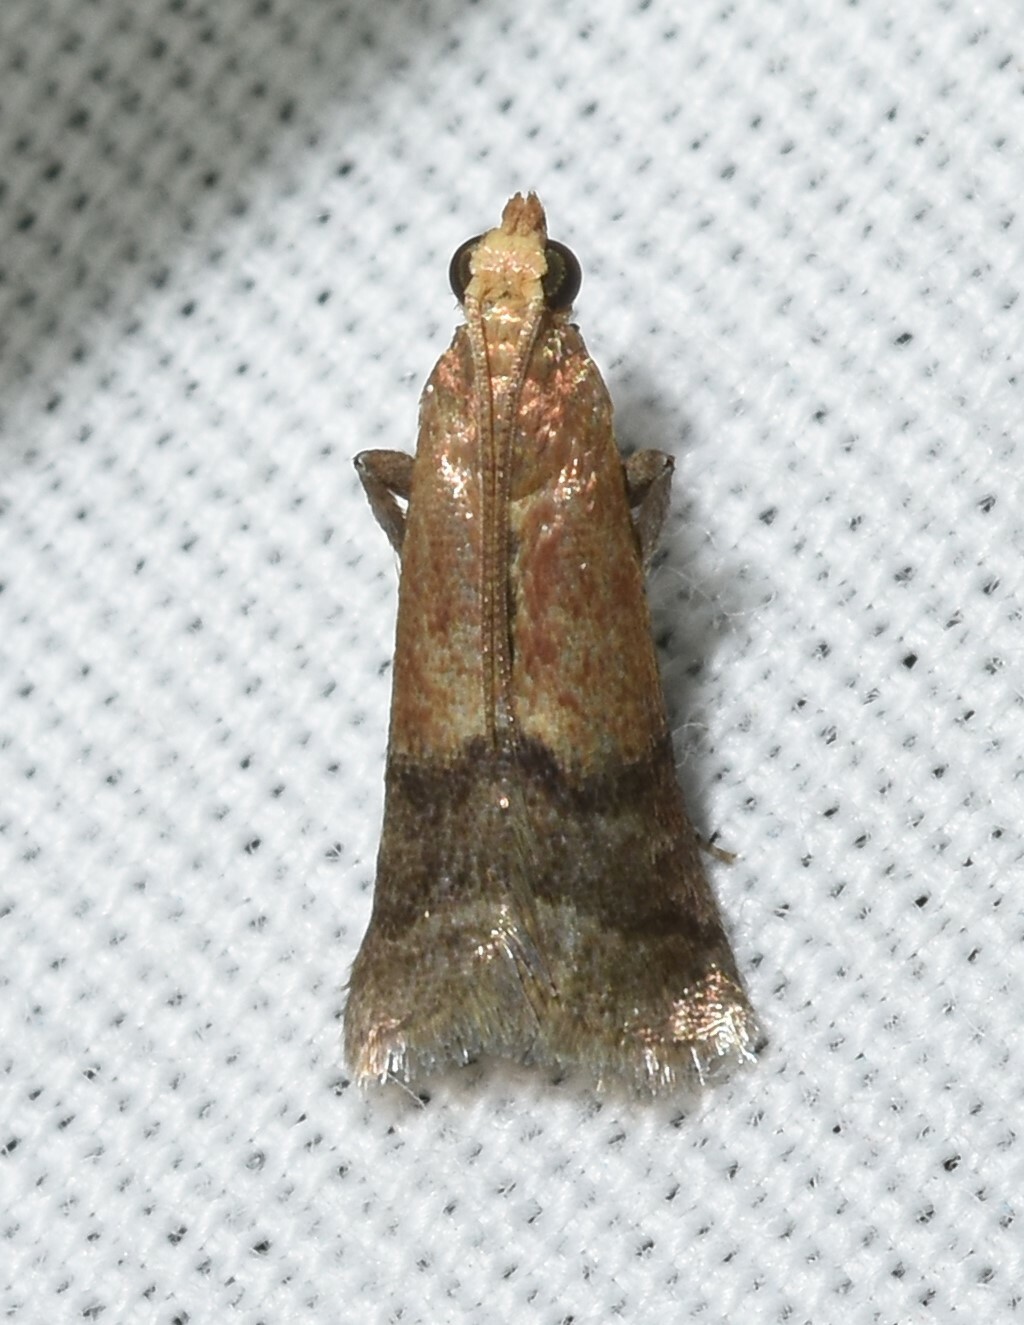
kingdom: Animalia
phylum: Arthropoda
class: Insecta
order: Lepidoptera
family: Pyralidae
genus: Eulogia
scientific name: Eulogia ochrifrontella
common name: Broad-banded eulogia moth
